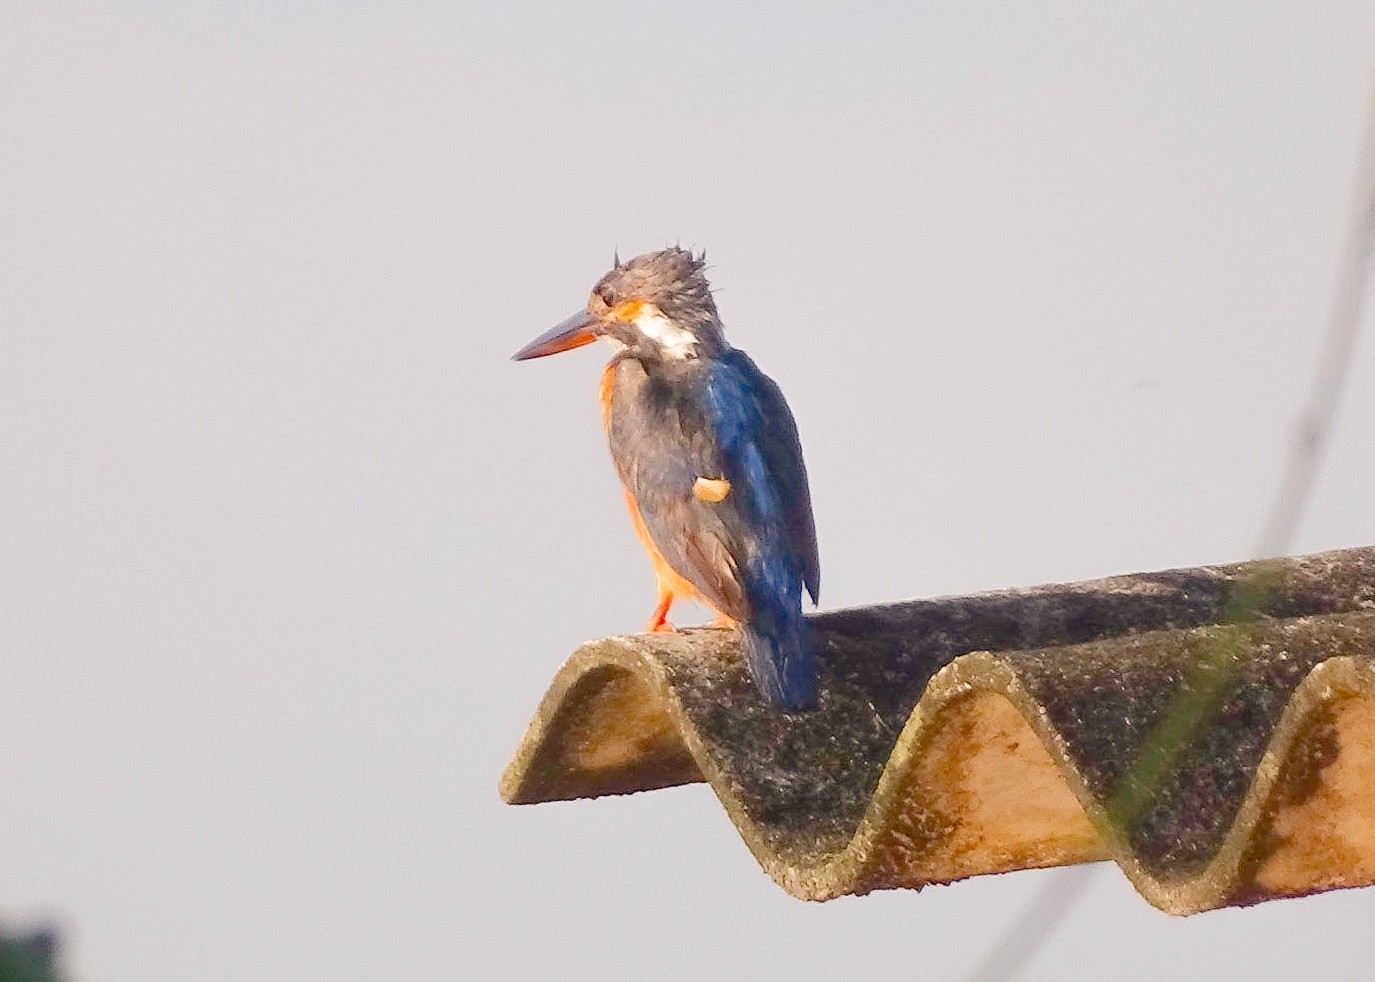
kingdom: Animalia
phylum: Chordata
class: Aves
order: Coraciiformes
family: Alcedinidae
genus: Alcedo
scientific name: Alcedo atthis
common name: Common kingfisher
